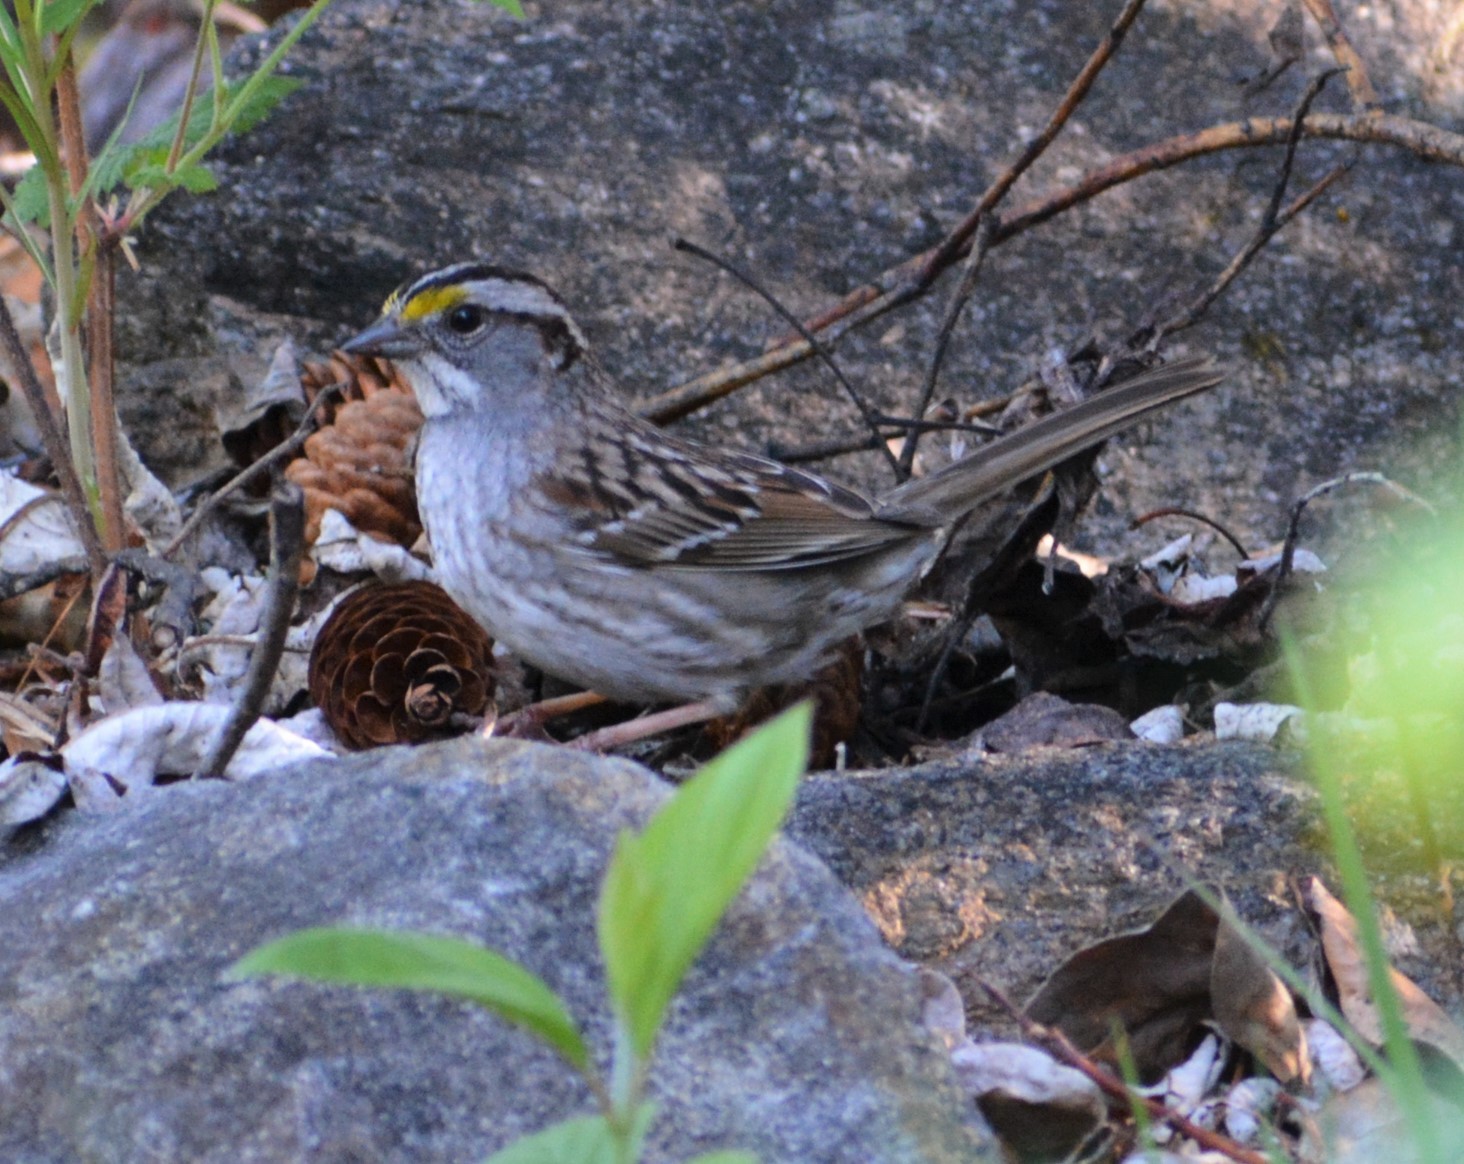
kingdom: Animalia
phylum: Chordata
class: Aves
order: Passeriformes
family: Passerellidae
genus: Zonotrichia
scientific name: Zonotrichia albicollis
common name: White-throated sparrow
